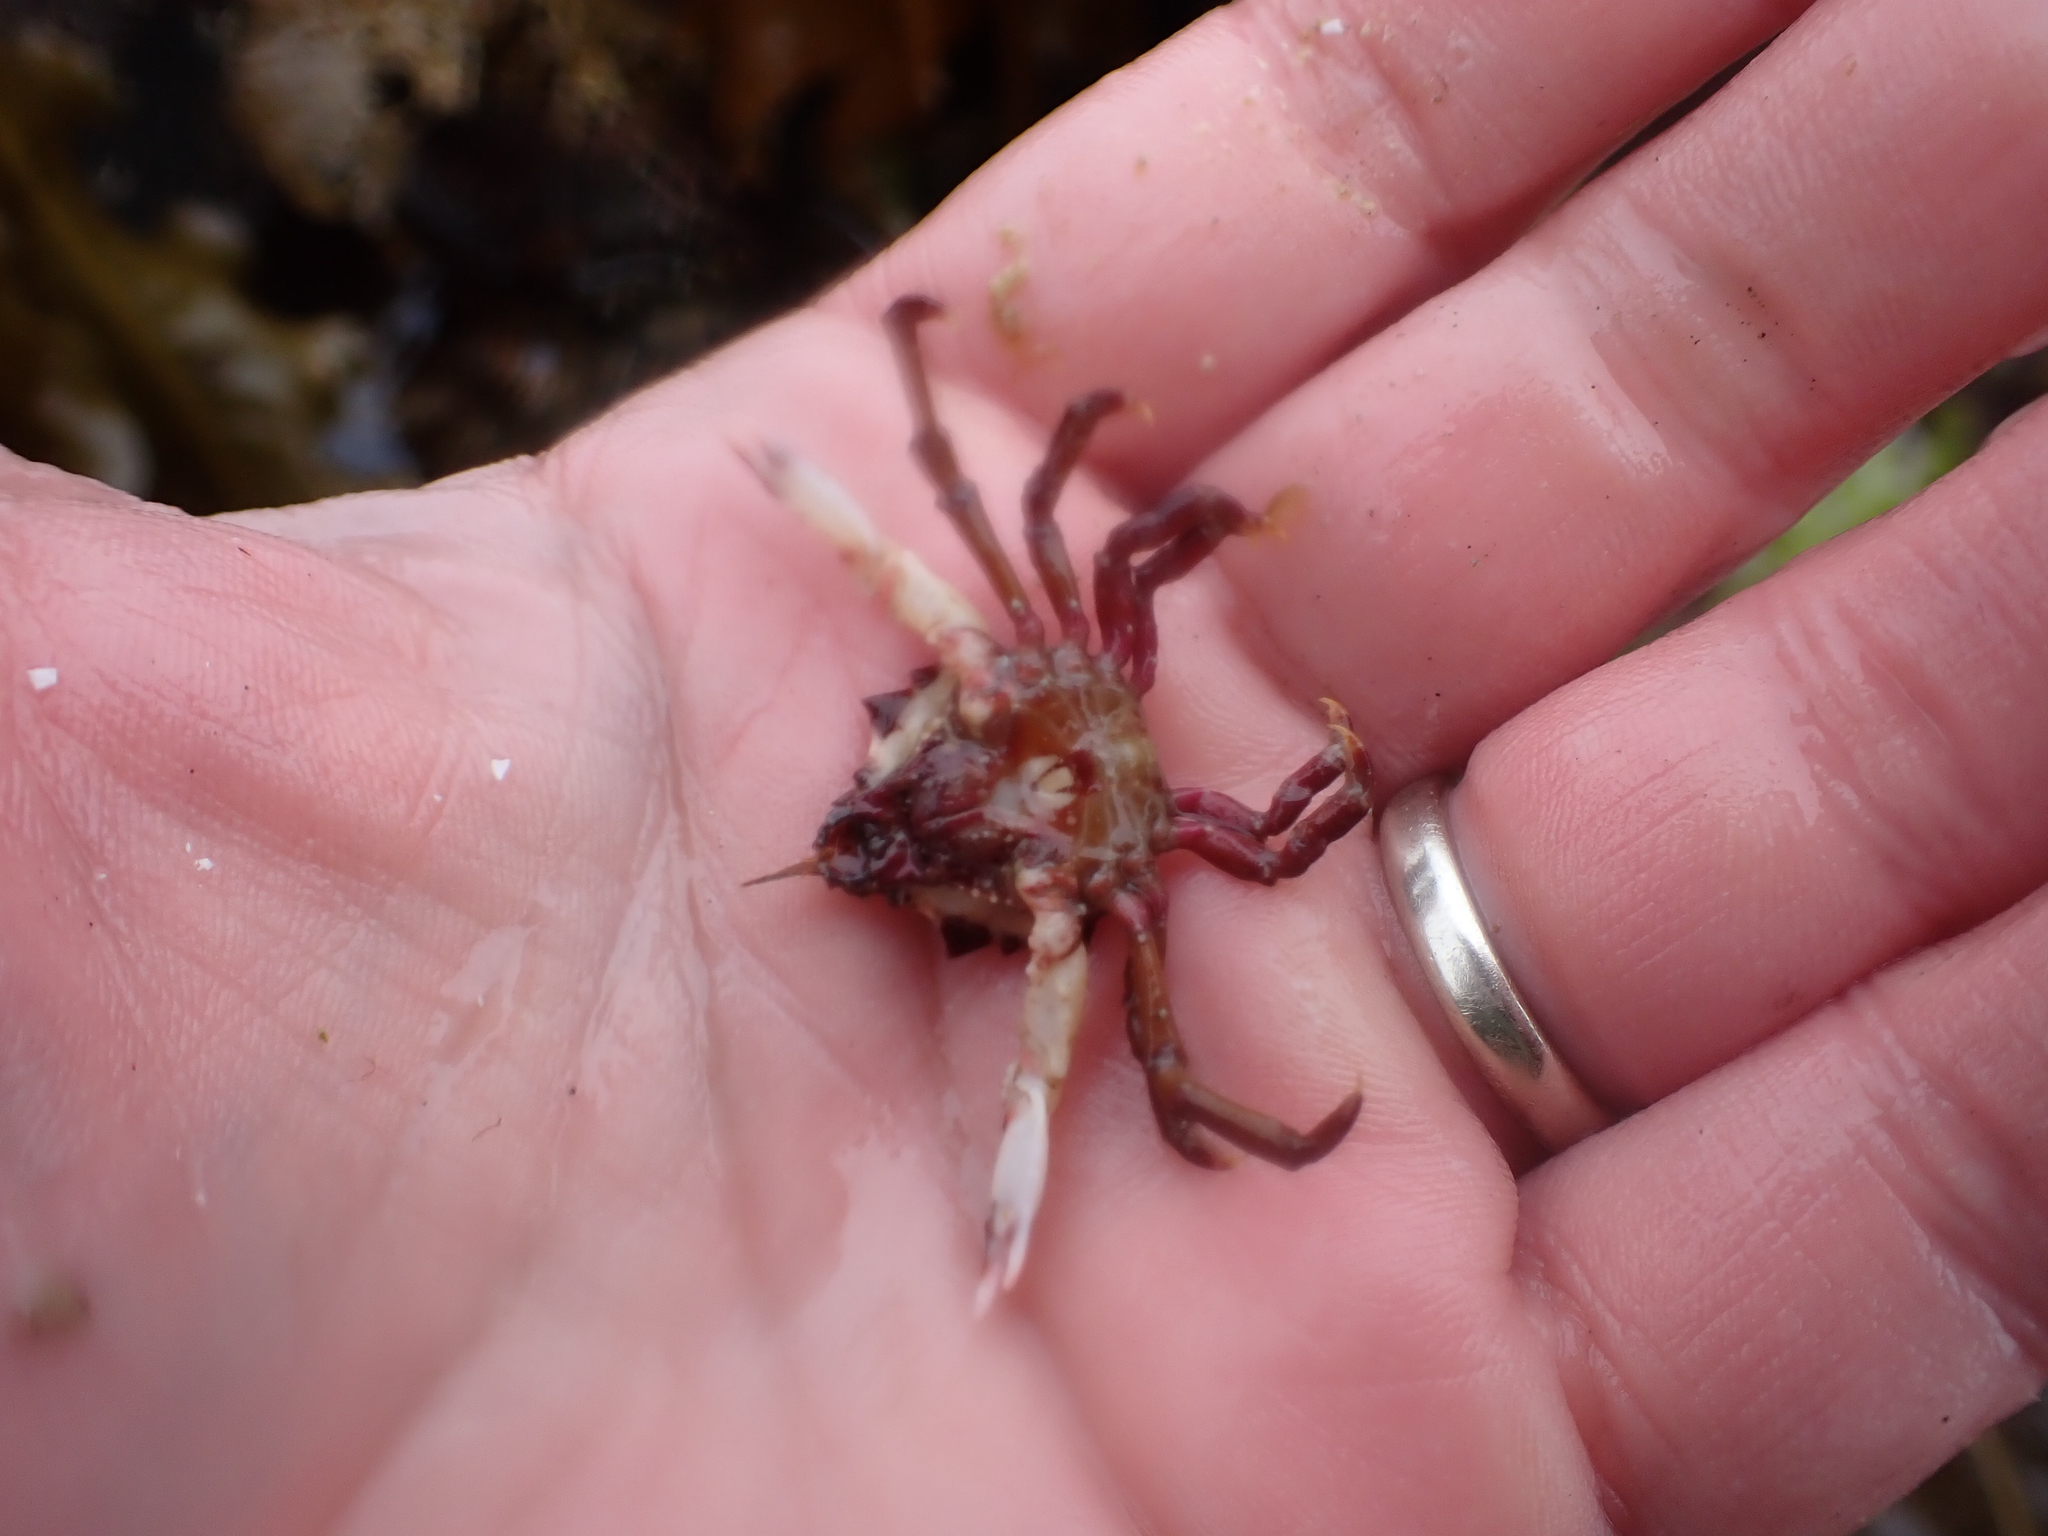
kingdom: Animalia
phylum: Arthropoda
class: Malacostraca
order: Decapoda
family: Epialtidae
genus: Pugettia
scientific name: Pugettia foliata
